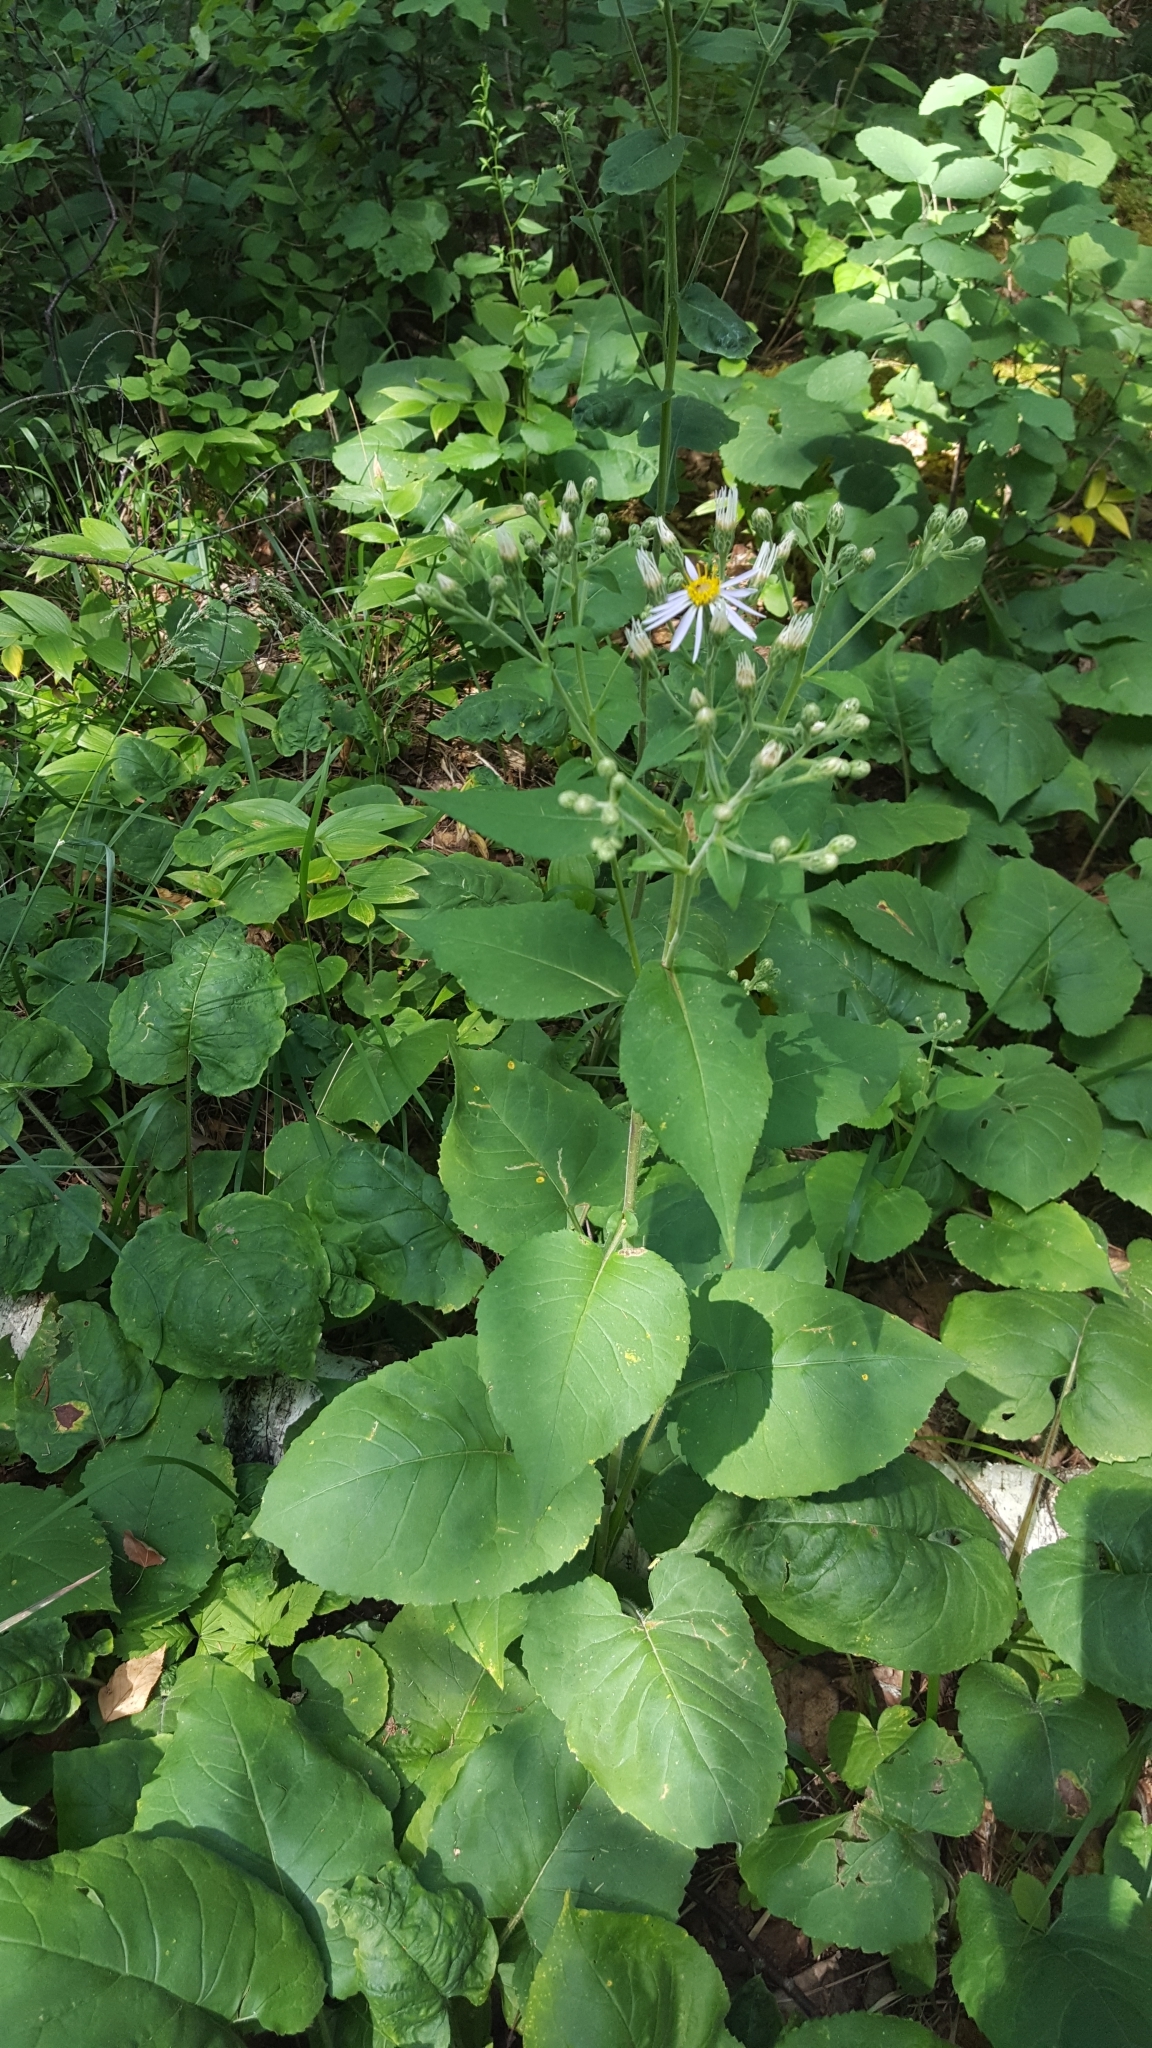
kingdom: Plantae
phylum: Tracheophyta
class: Magnoliopsida
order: Asterales
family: Asteraceae
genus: Eurybia
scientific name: Eurybia macrophylla
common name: Big-leaved aster
